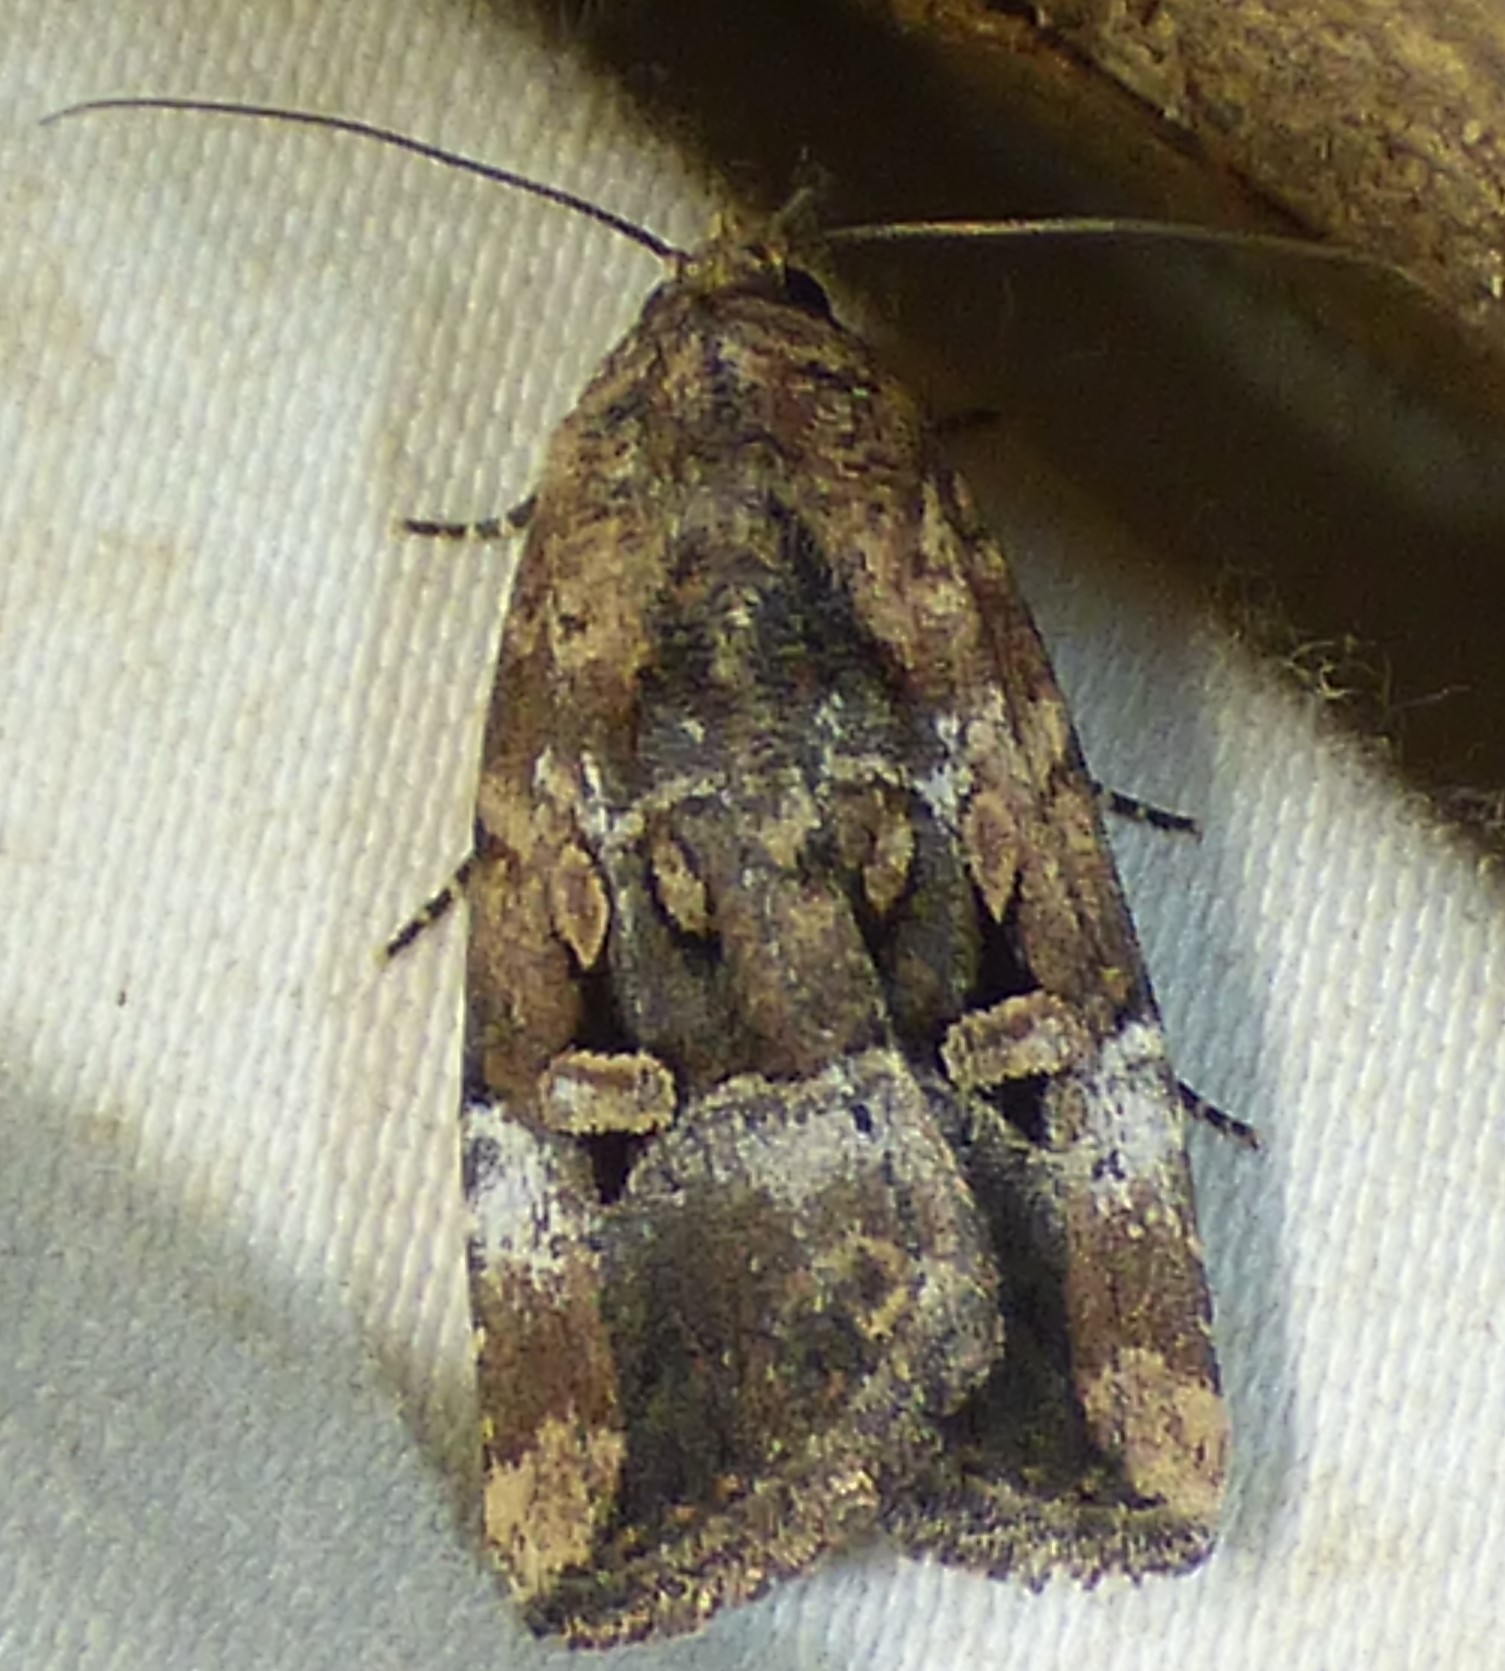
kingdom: Animalia
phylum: Arthropoda
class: Insecta
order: Lepidoptera
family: Noctuidae
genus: Elaphria
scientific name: Elaphria chalcedonia
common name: Chalcedony midget
